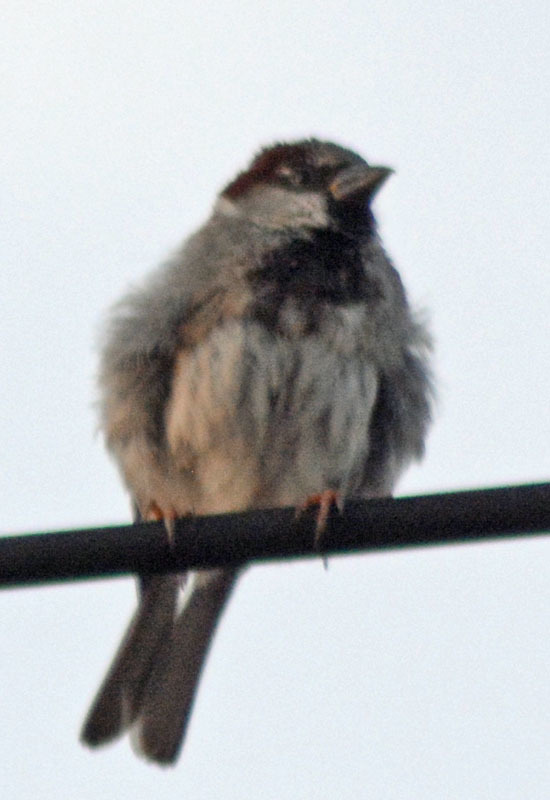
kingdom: Animalia
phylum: Chordata
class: Aves
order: Passeriformes
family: Passeridae
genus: Passer
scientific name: Passer domesticus
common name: House sparrow
